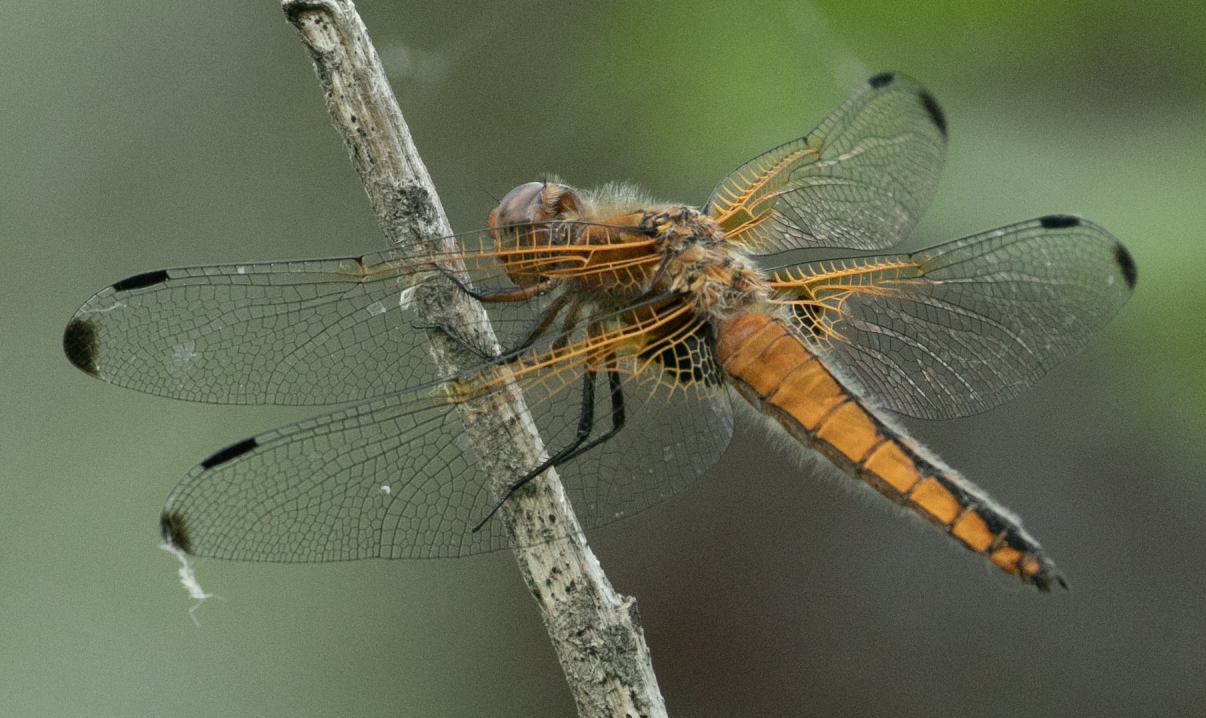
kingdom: Animalia
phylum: Arthropoda
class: Insecta
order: Odonata
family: Libellulidae
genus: Libellula
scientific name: Libellula fulva
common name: Blue chaser
